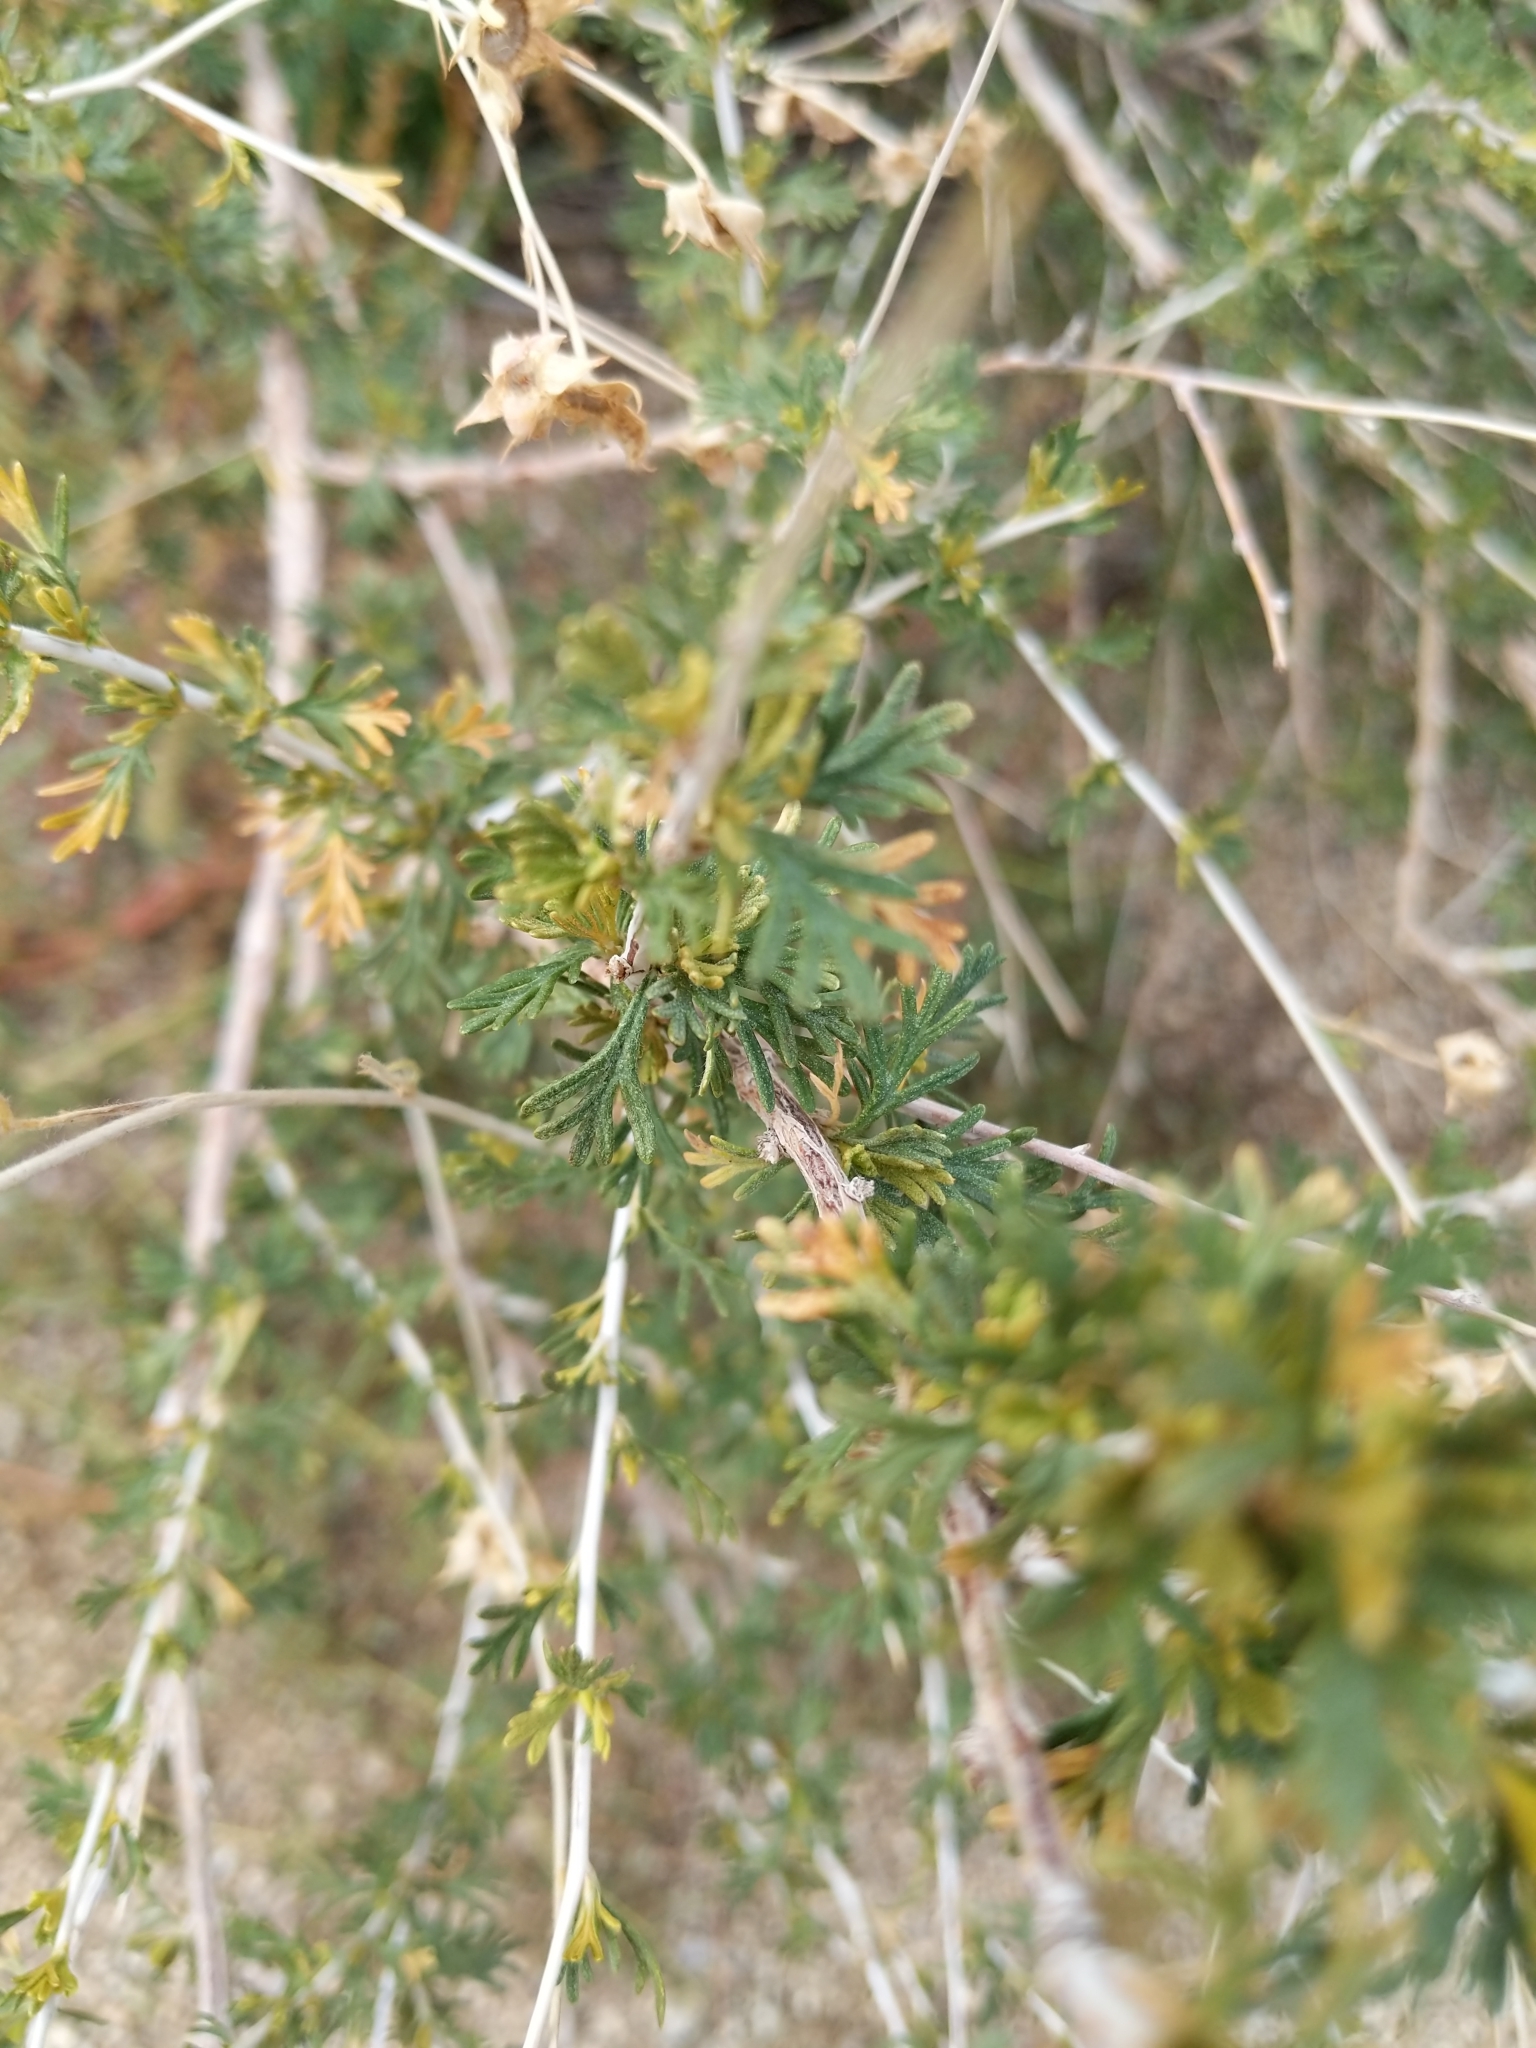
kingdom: Plantae
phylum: Tracheophyta
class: Magnoliopsida
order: Rosales
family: Rosaceae
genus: Fallugia
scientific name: Fallugia paradoxa
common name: Apache-plume
